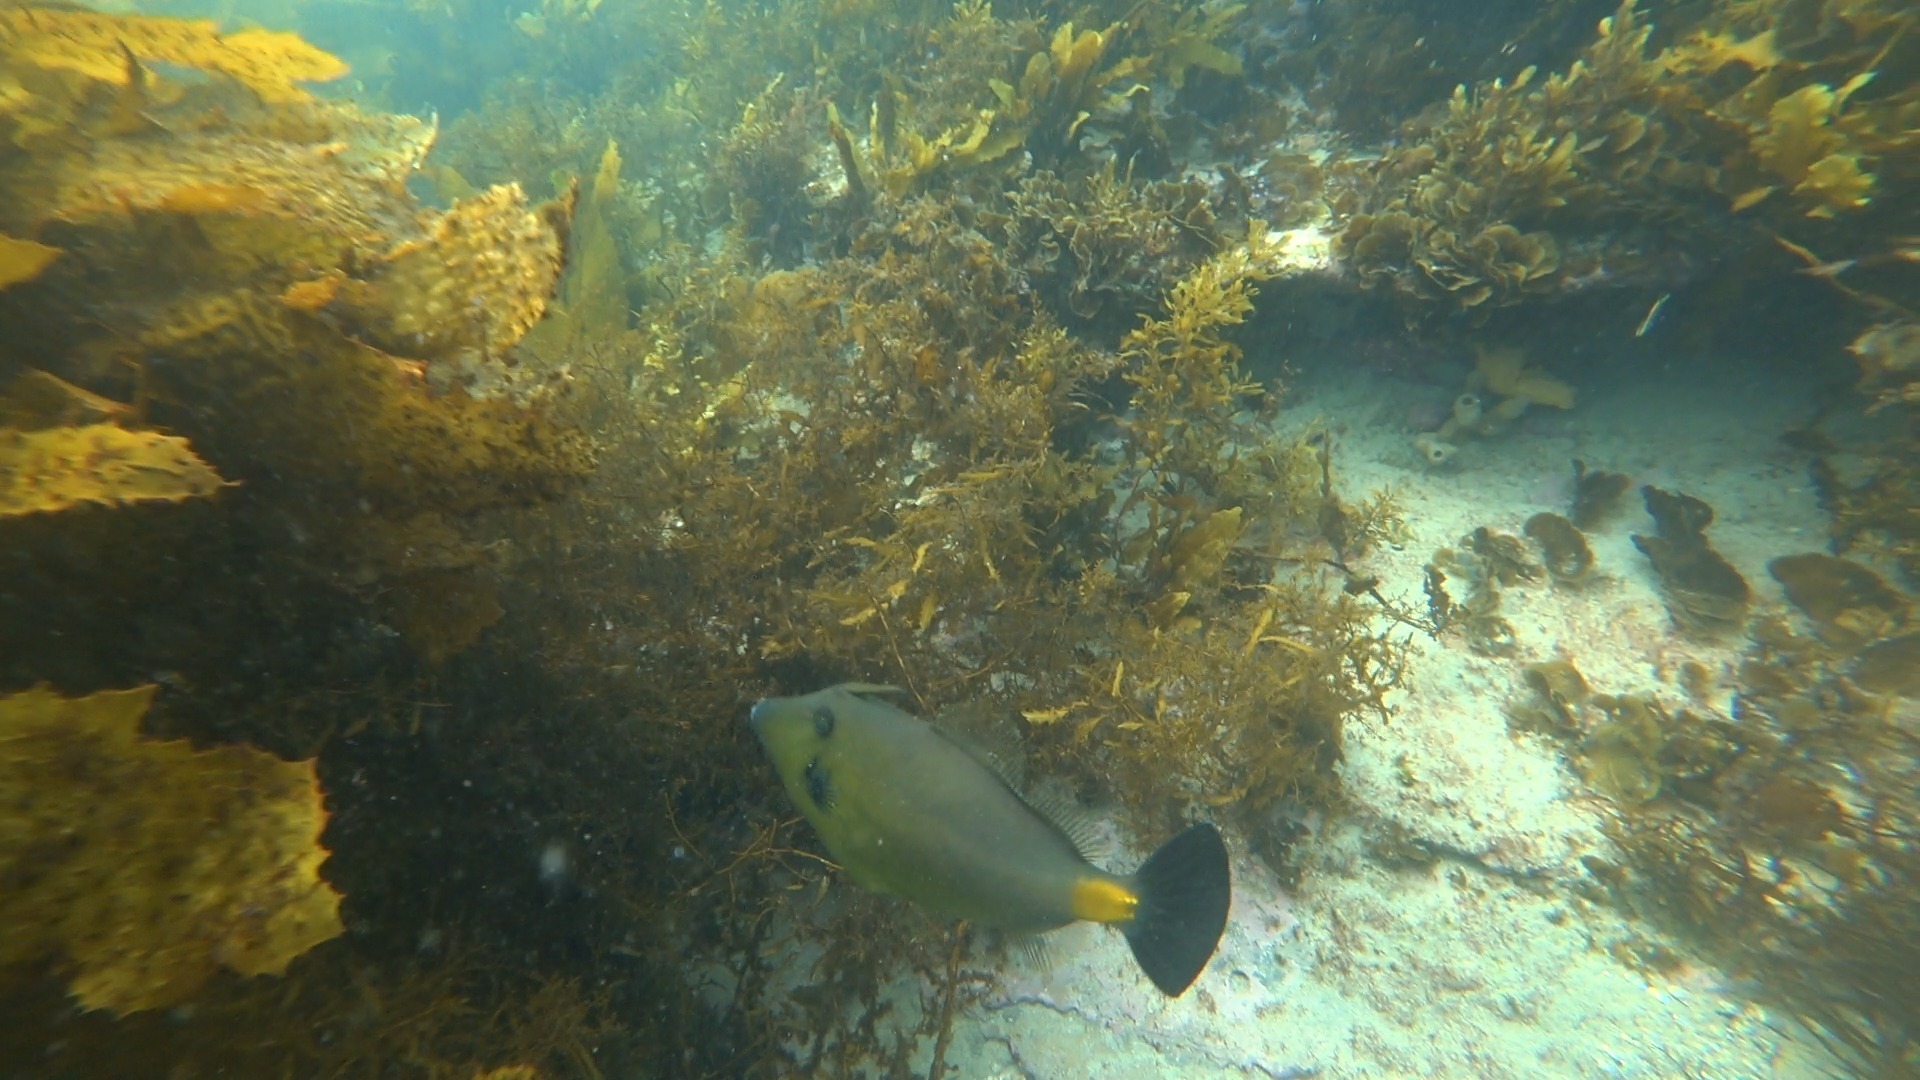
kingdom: Animalia
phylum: Chordata
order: Tetraodontiformes
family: Monacanthidae
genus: Meuschenia
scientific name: Meuschenia flavolineata
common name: Yellowstriped leatherjacket
